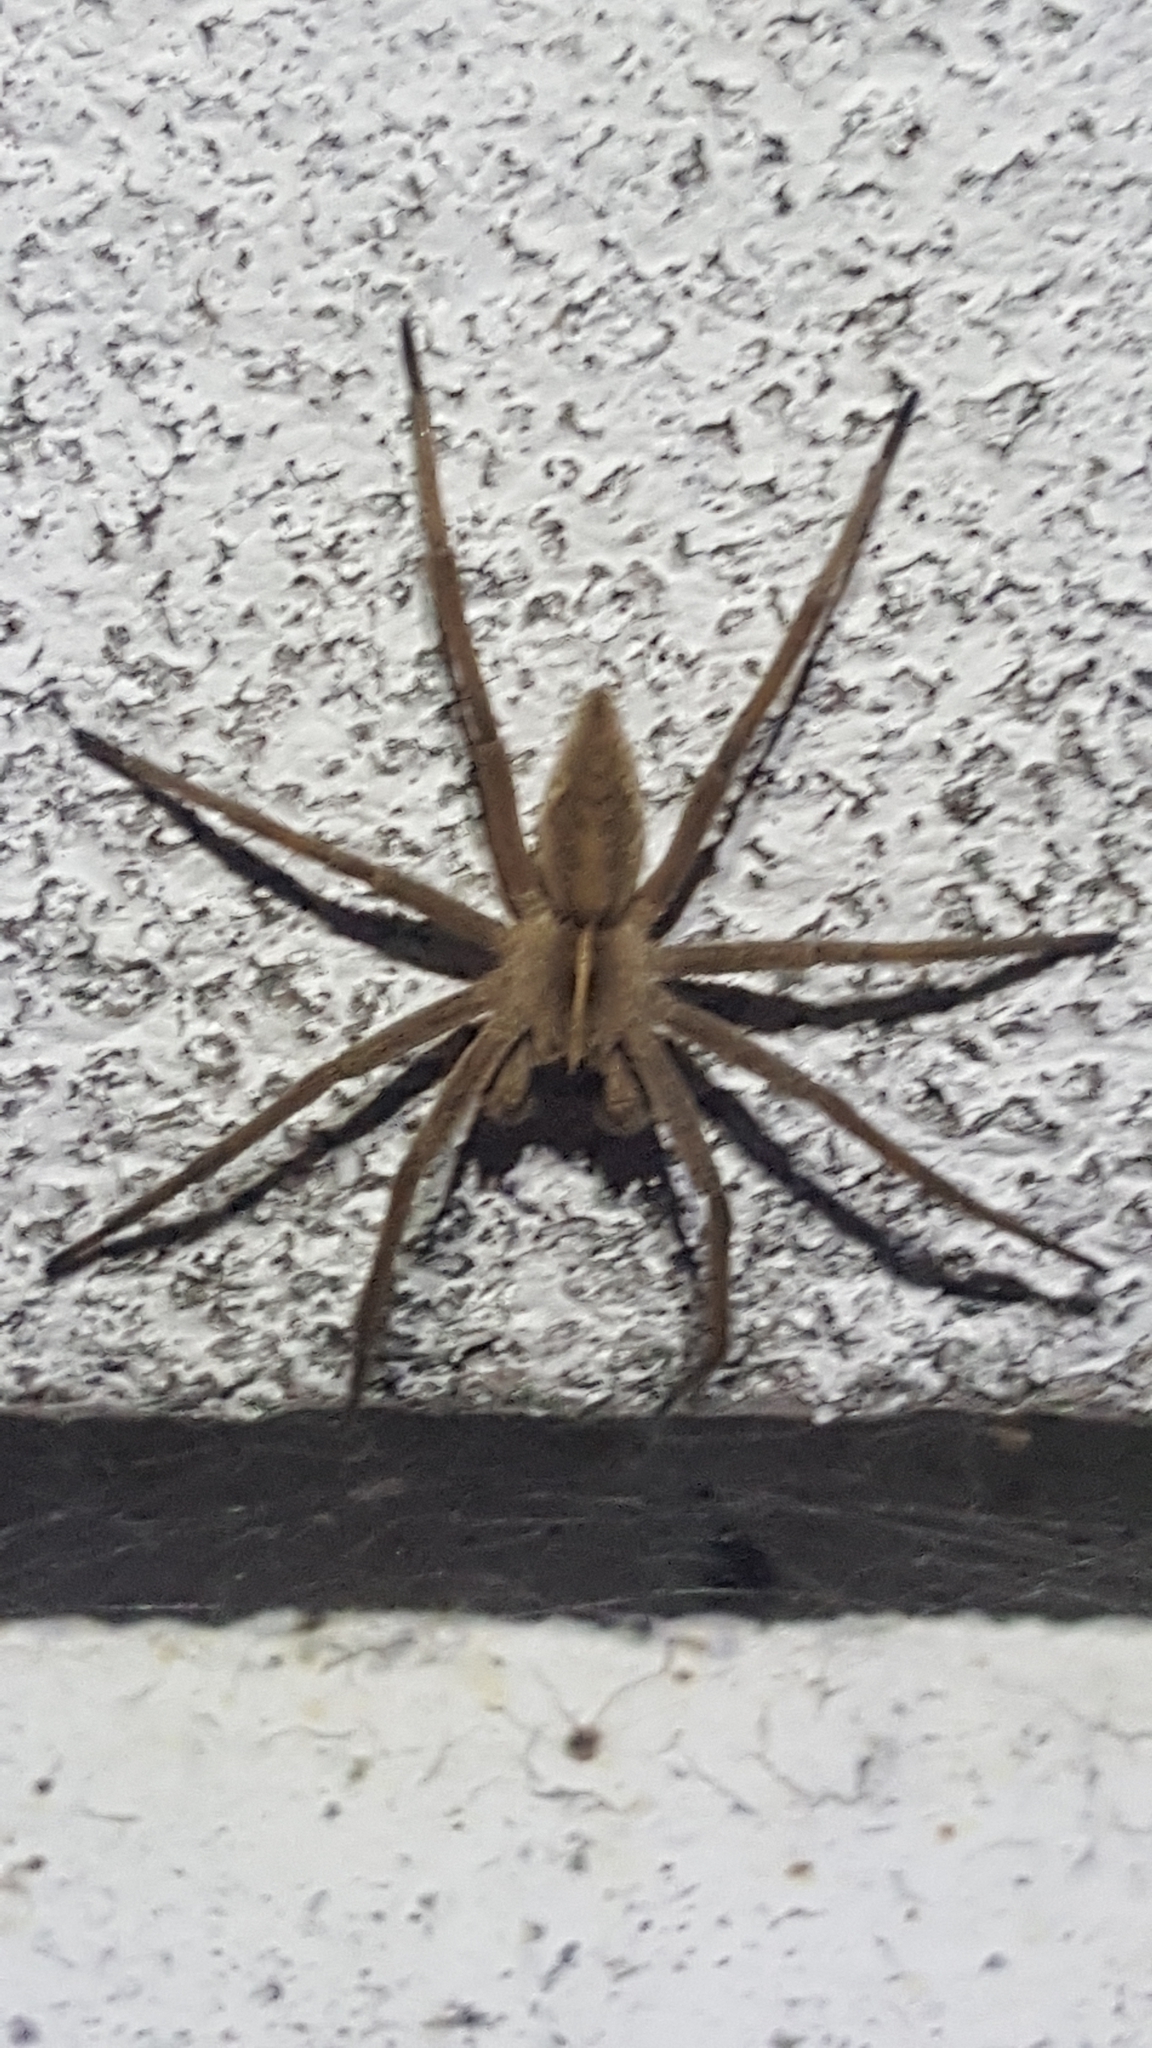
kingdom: Animalia
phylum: Arthropoda
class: Arachnida
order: Araneae
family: Pisauridae
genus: Pisaura
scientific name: Pisaura mirabilis
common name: Tent spider
